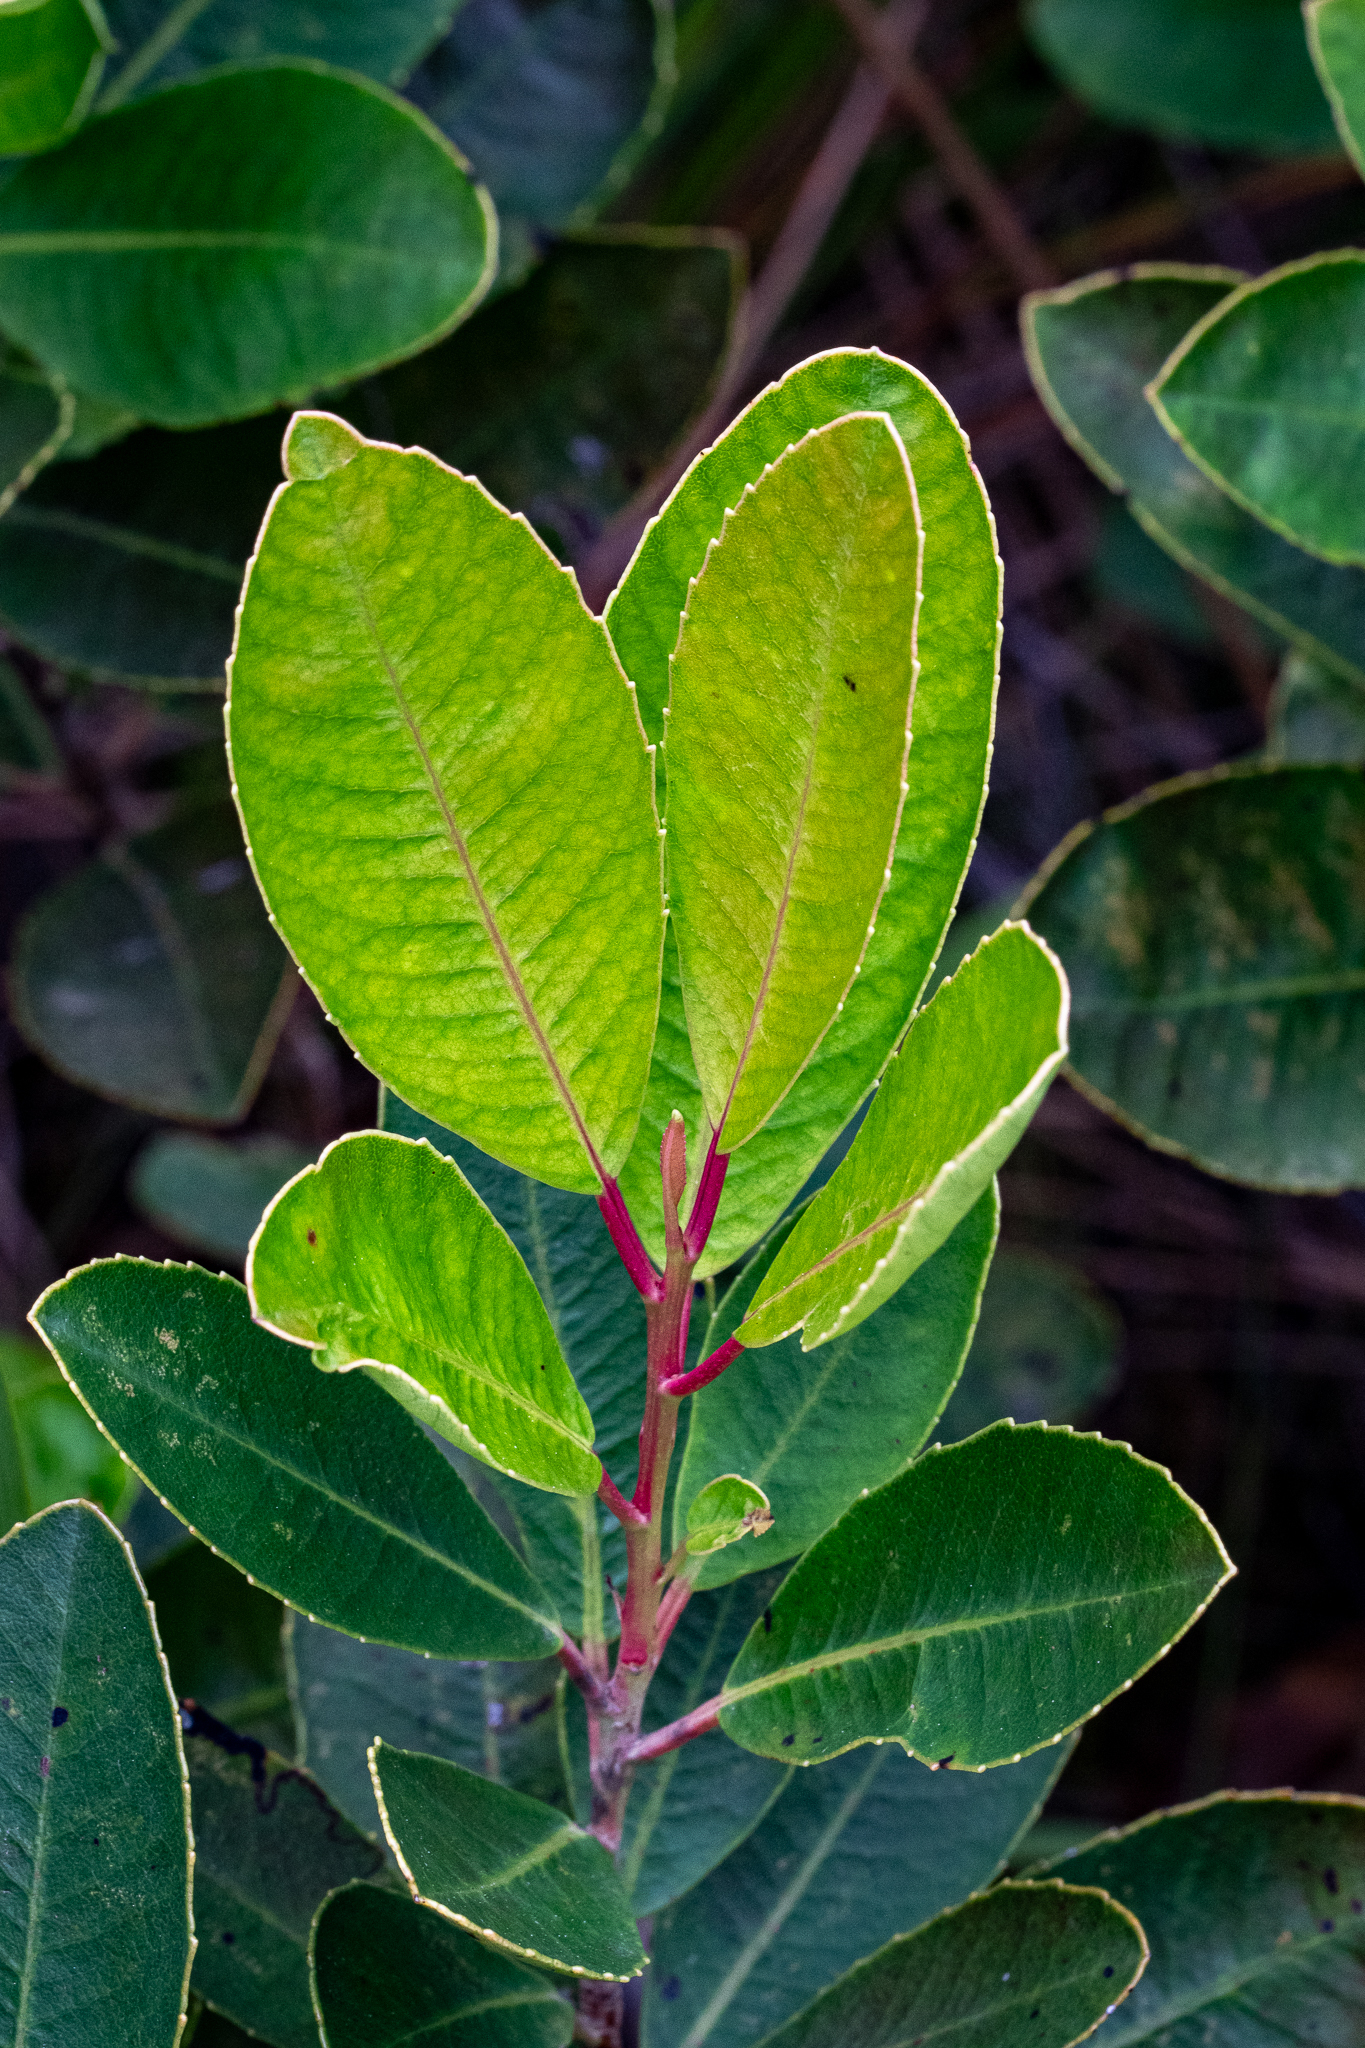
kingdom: Plantae
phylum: Tracheophyta
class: Magnoliopsida
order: Sapindales
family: Anacardiaceae
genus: Laurophyllus
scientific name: Laurophyllus capensis
